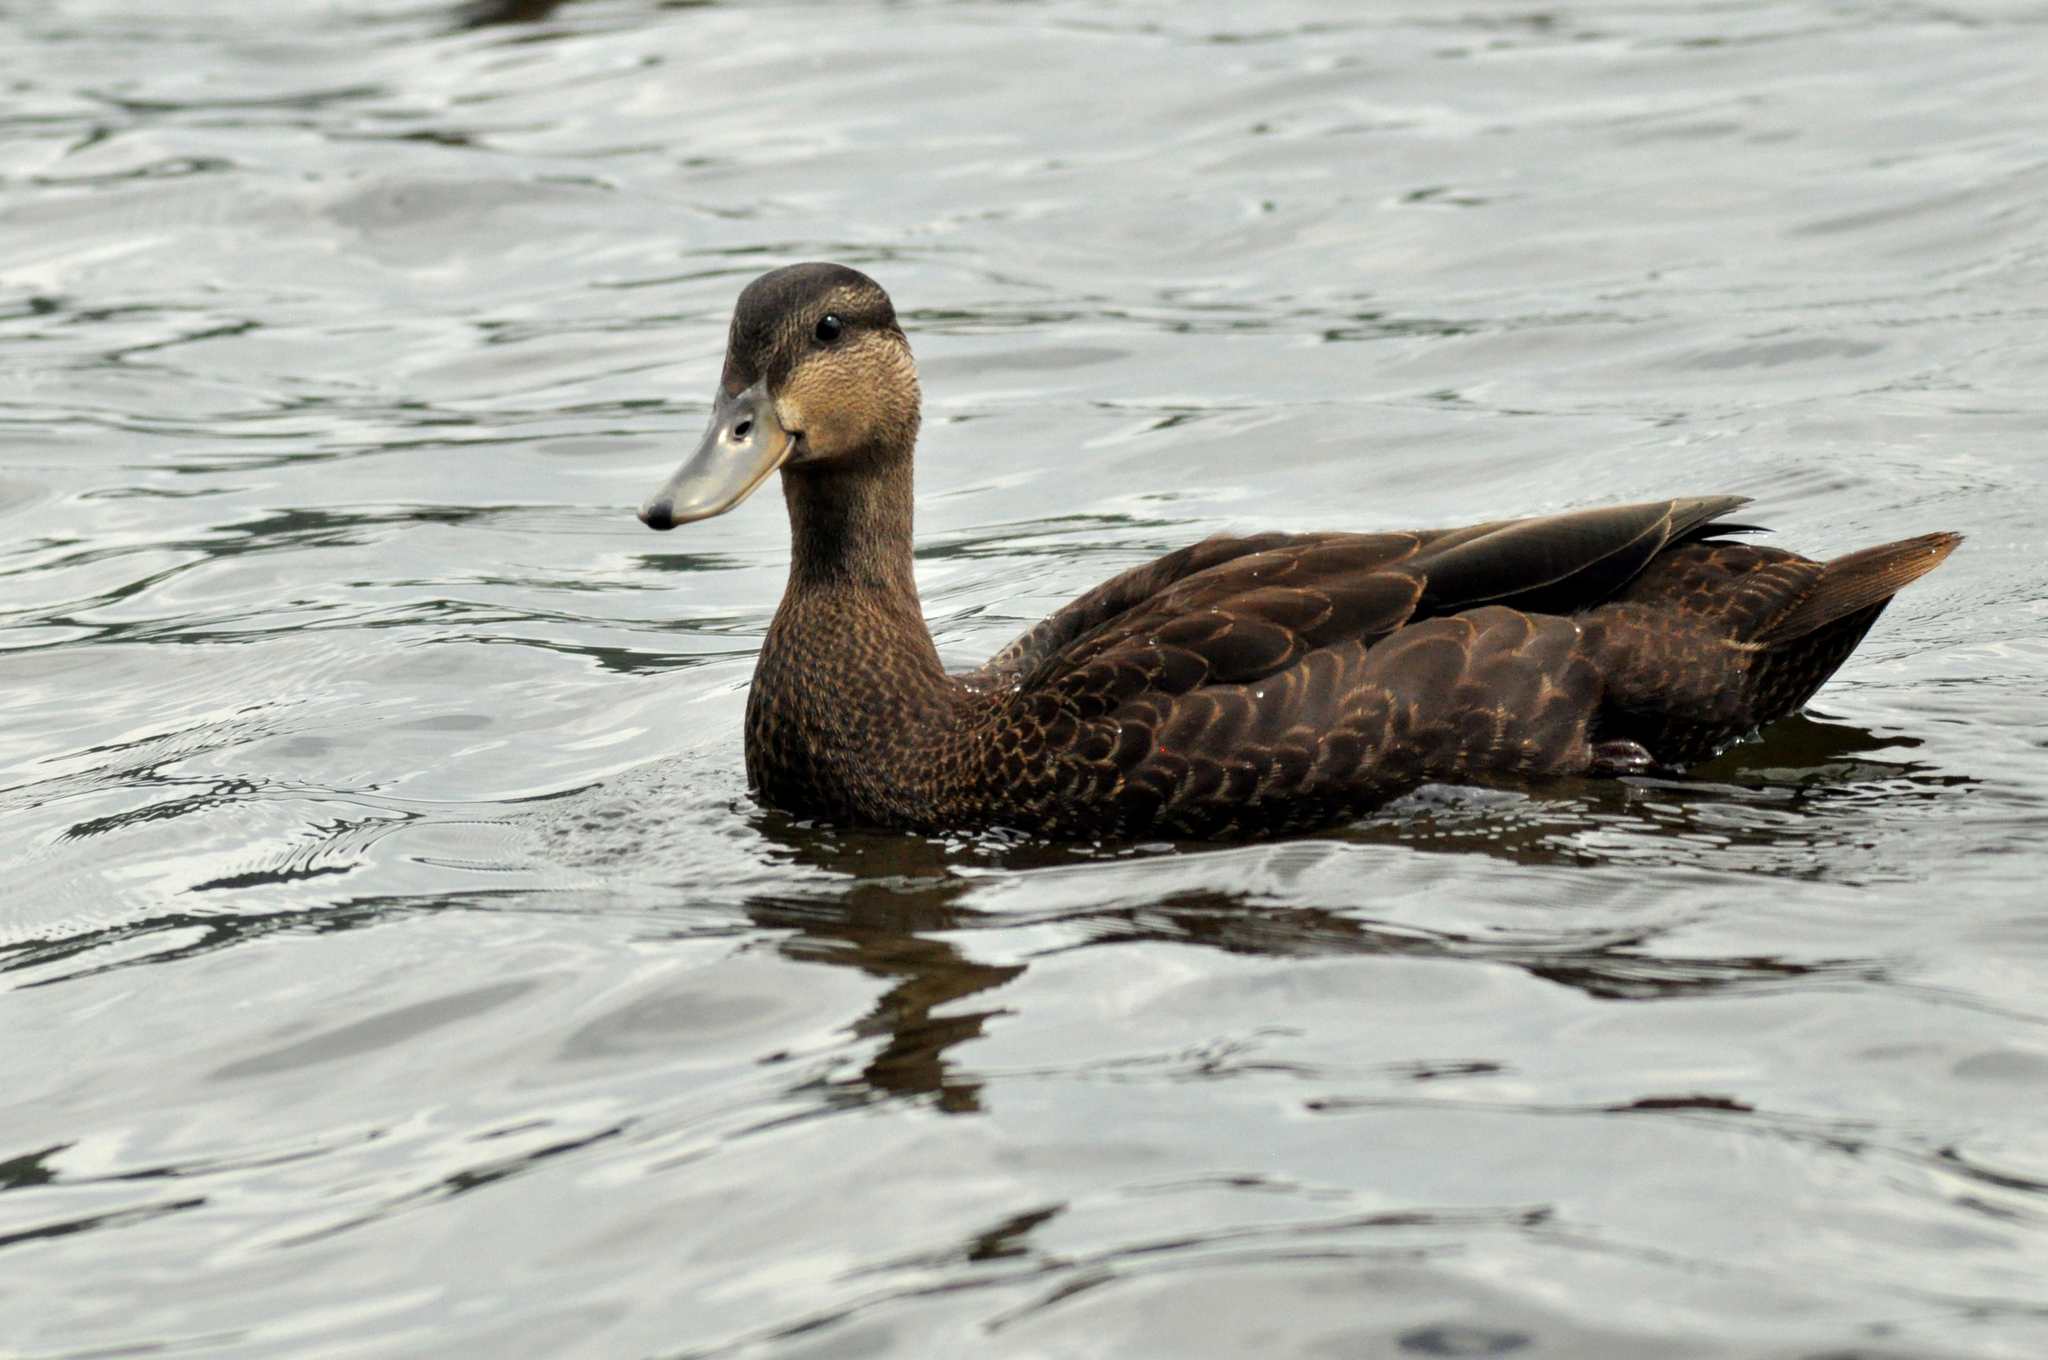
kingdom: Animalia
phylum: Chordata
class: Aves
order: Anseriformes
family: Anatidae
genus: Anas
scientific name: Anas rubripes
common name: American black duck
